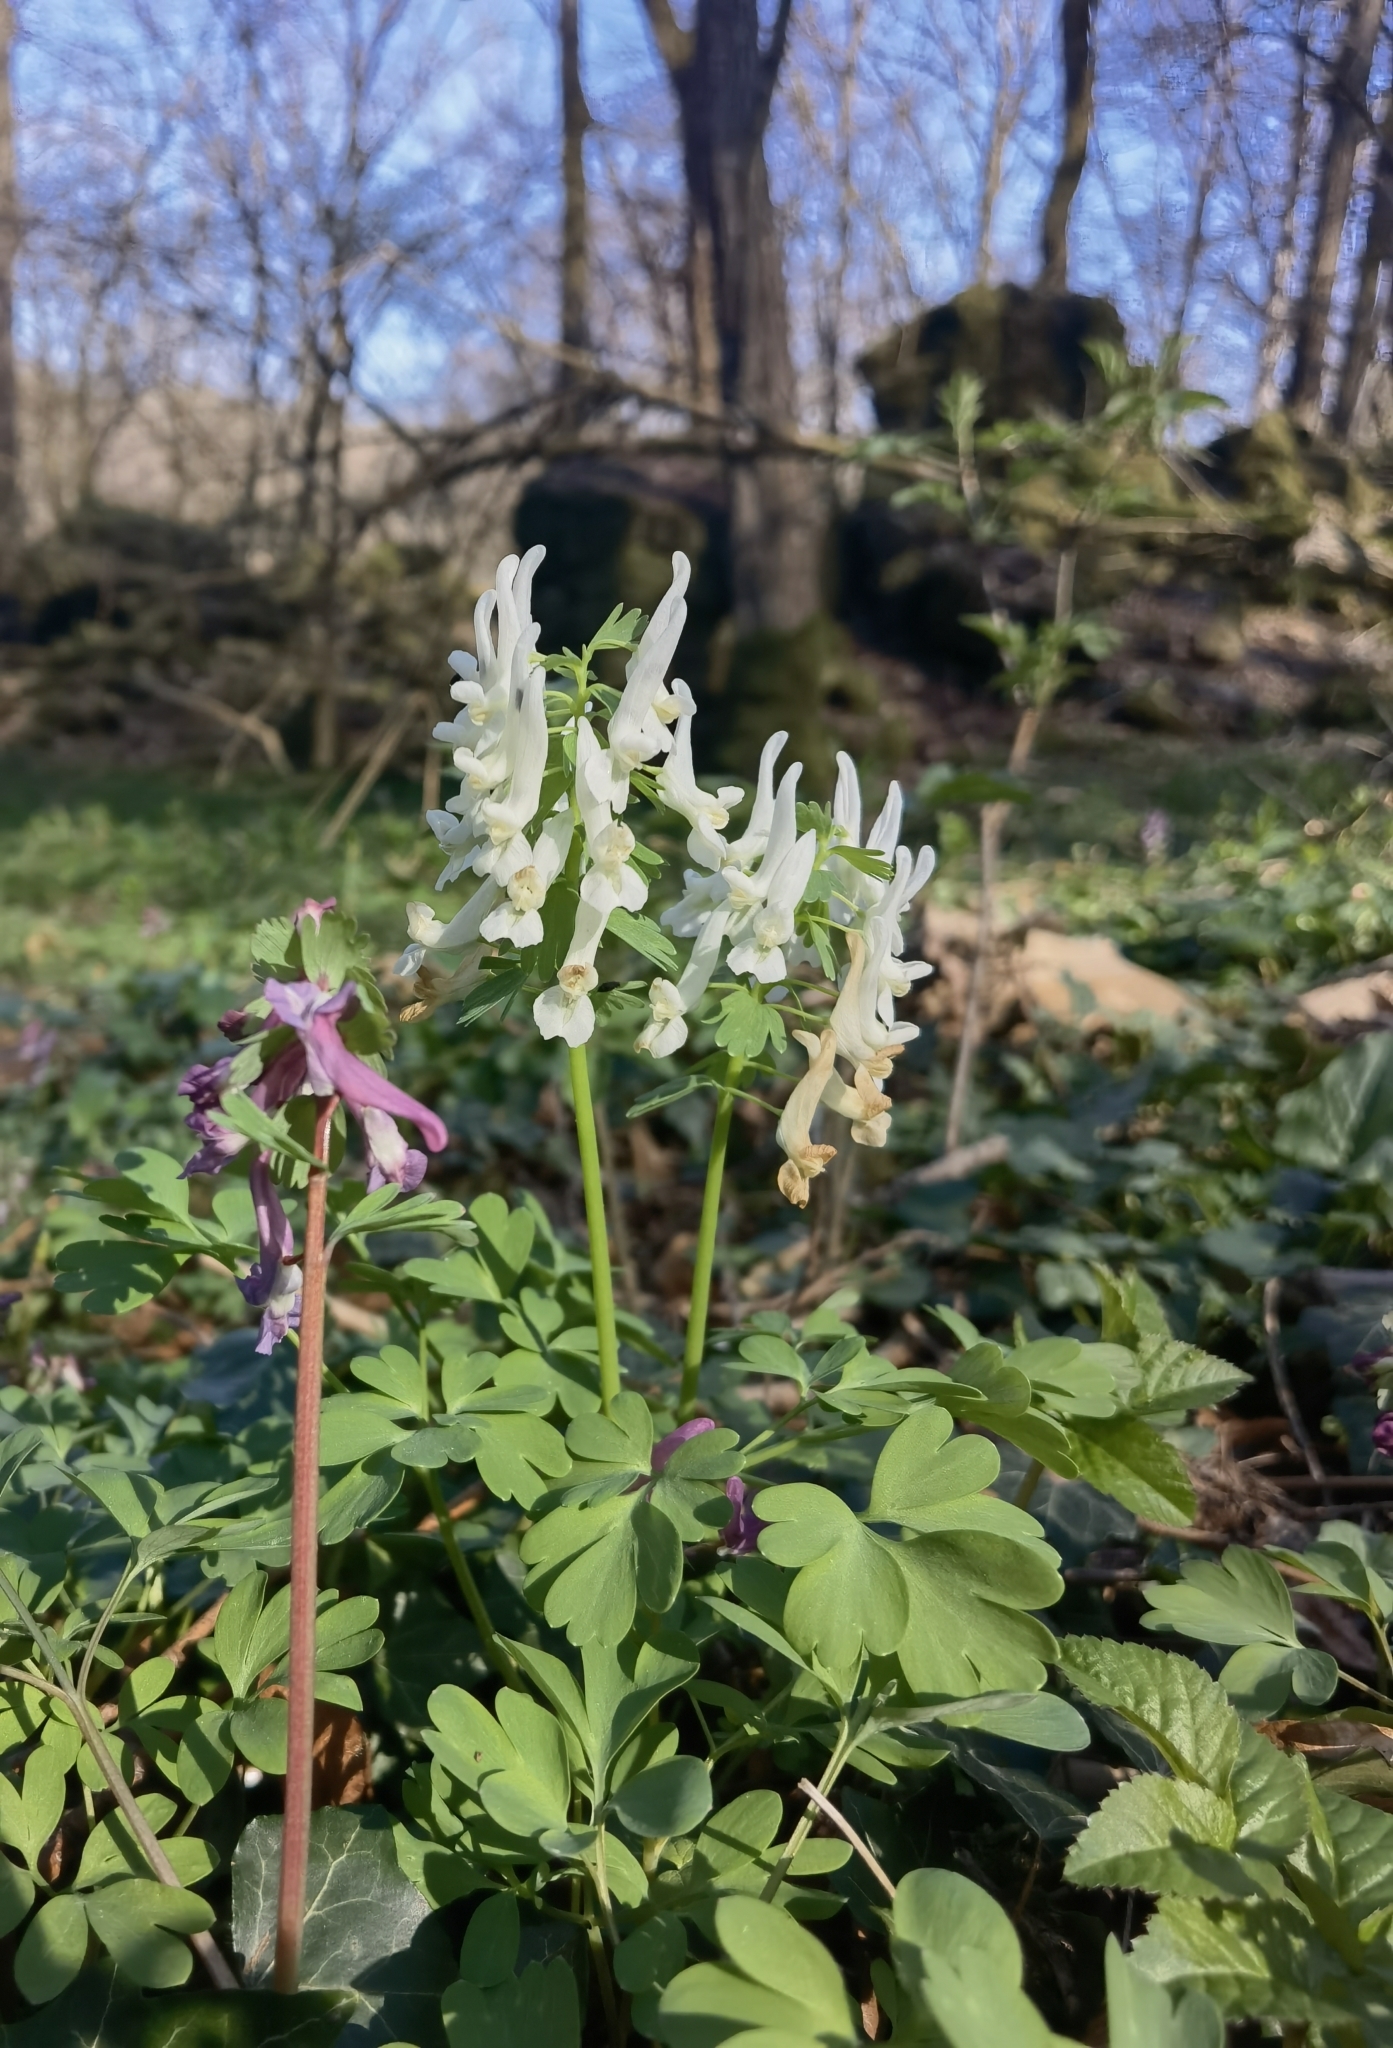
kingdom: Plantae
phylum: Tracheophyta
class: Magnoliopsida
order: Ranunculales
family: Papaveraceae
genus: Corydalis
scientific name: Corydalis solida
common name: Bird-in-a-bush
